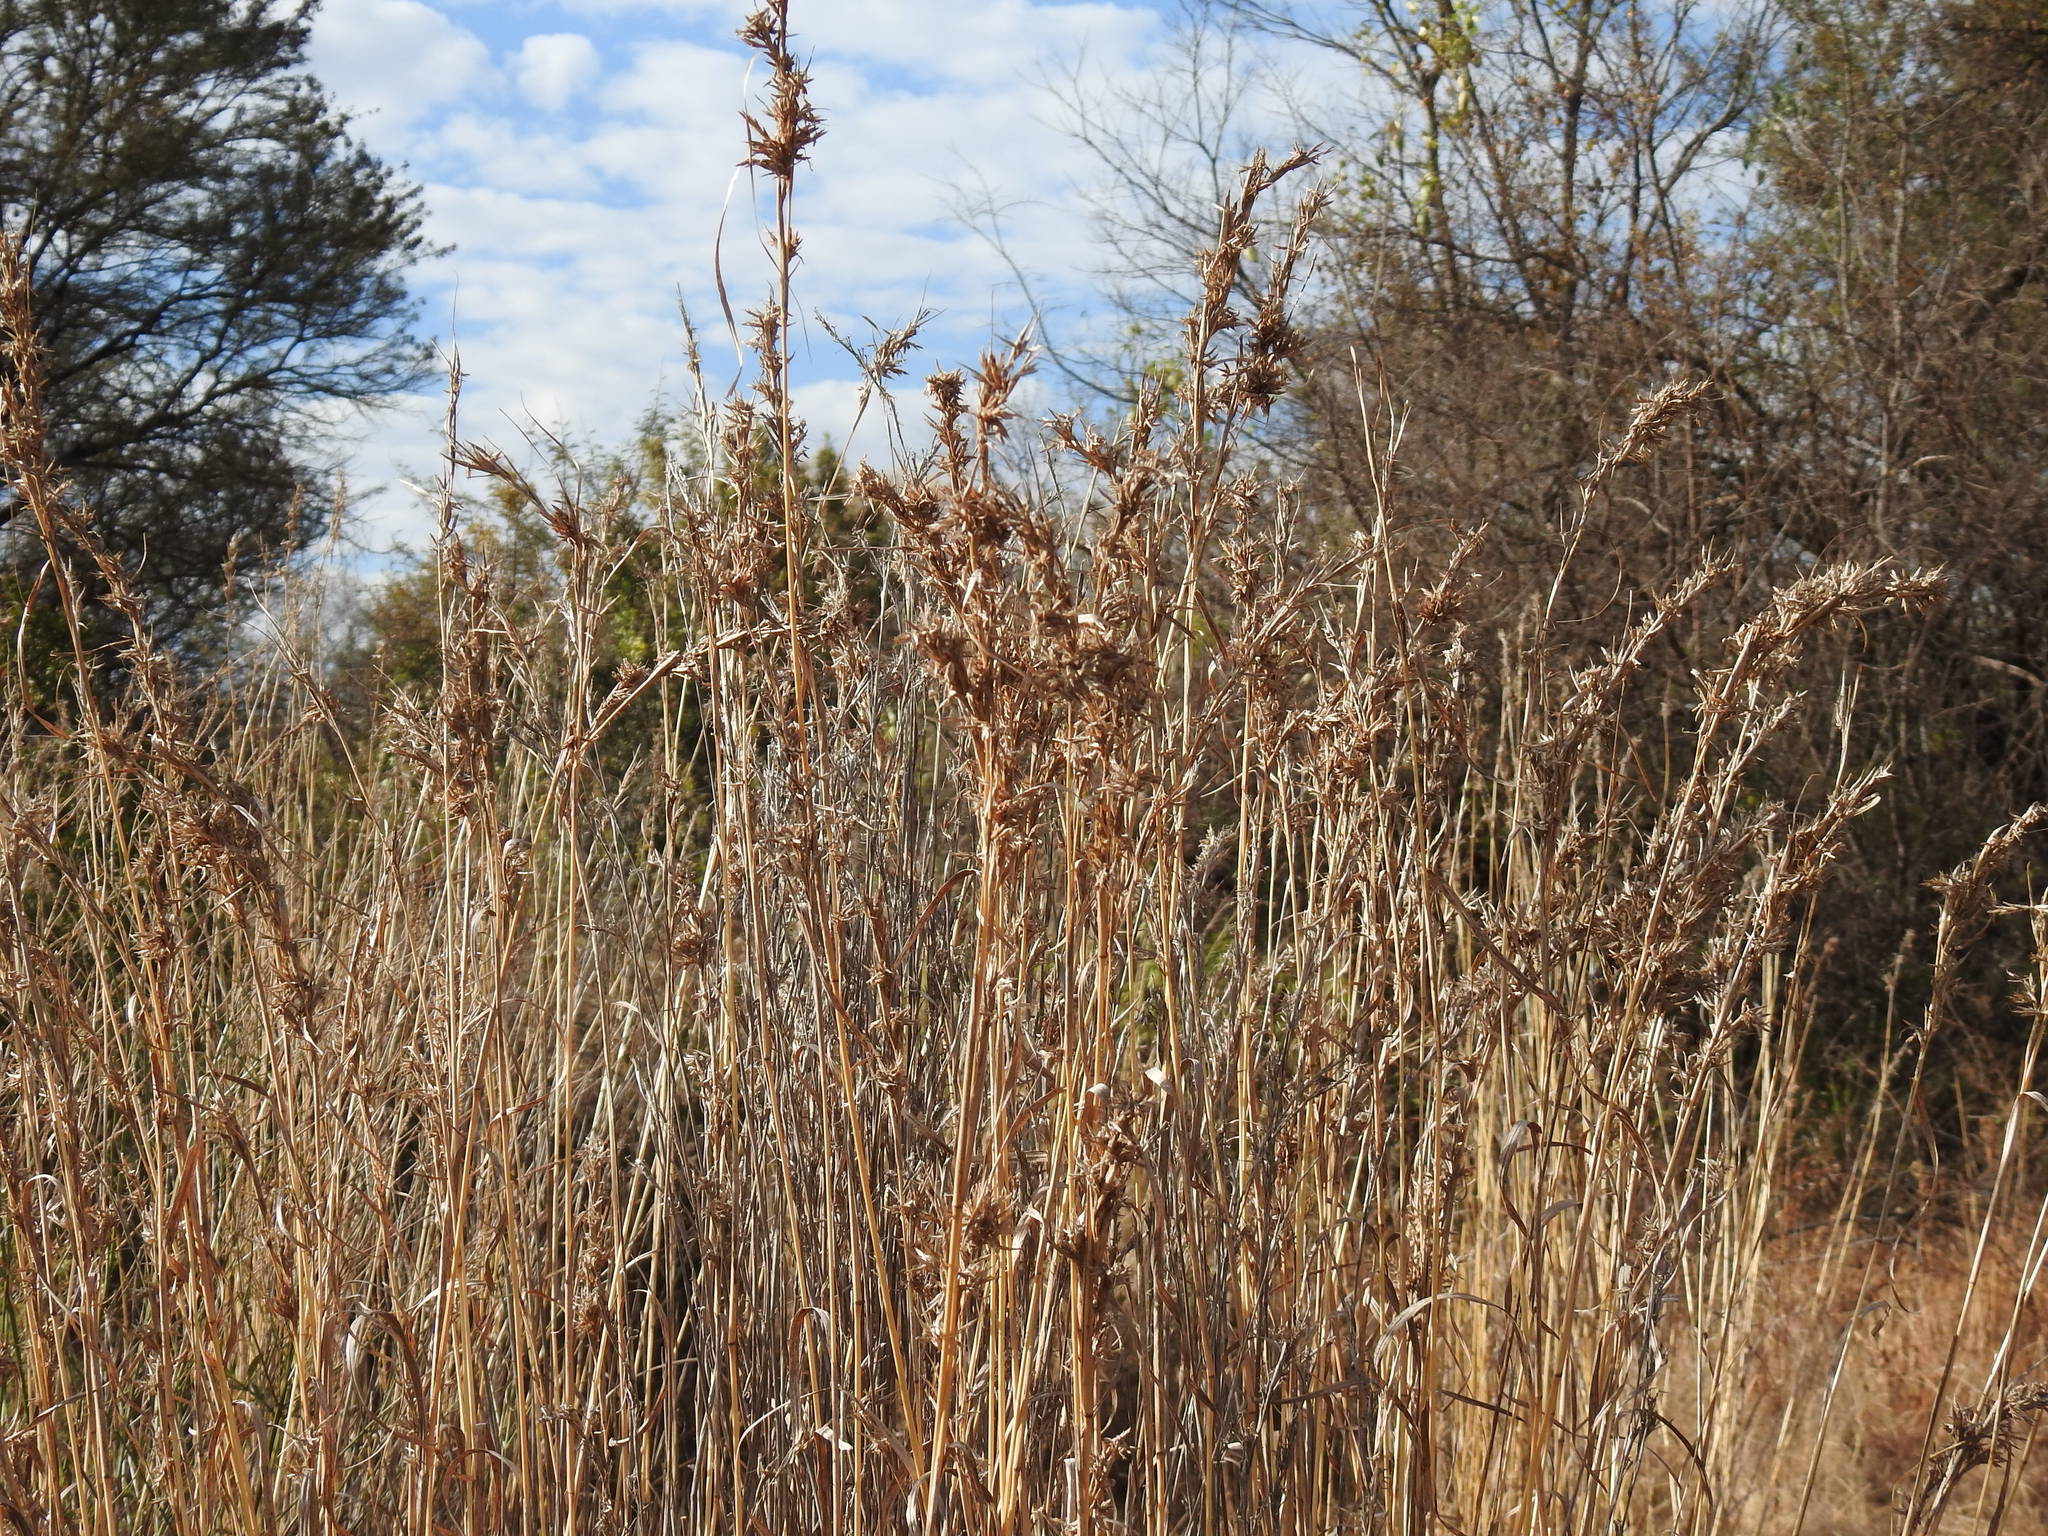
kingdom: Plantae
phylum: Tracheophyta
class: Liliopsida
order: Poales
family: Poaceae
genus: Hyparrhenia
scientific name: Hyparrhenia dregeana
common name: Silky thatching grass
